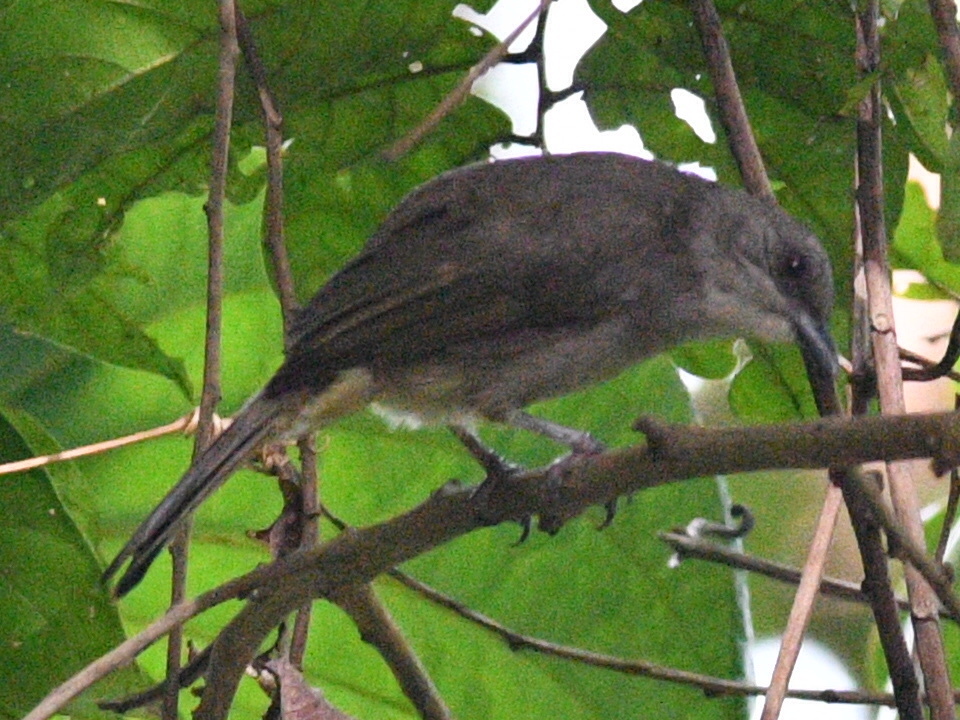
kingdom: Animalia
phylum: Chordata
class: Aves
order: Passeriformes
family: Pycnonotidae
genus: Pycnonotus
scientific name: Pycnonotus plumosus
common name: Olive-winged bulbul
